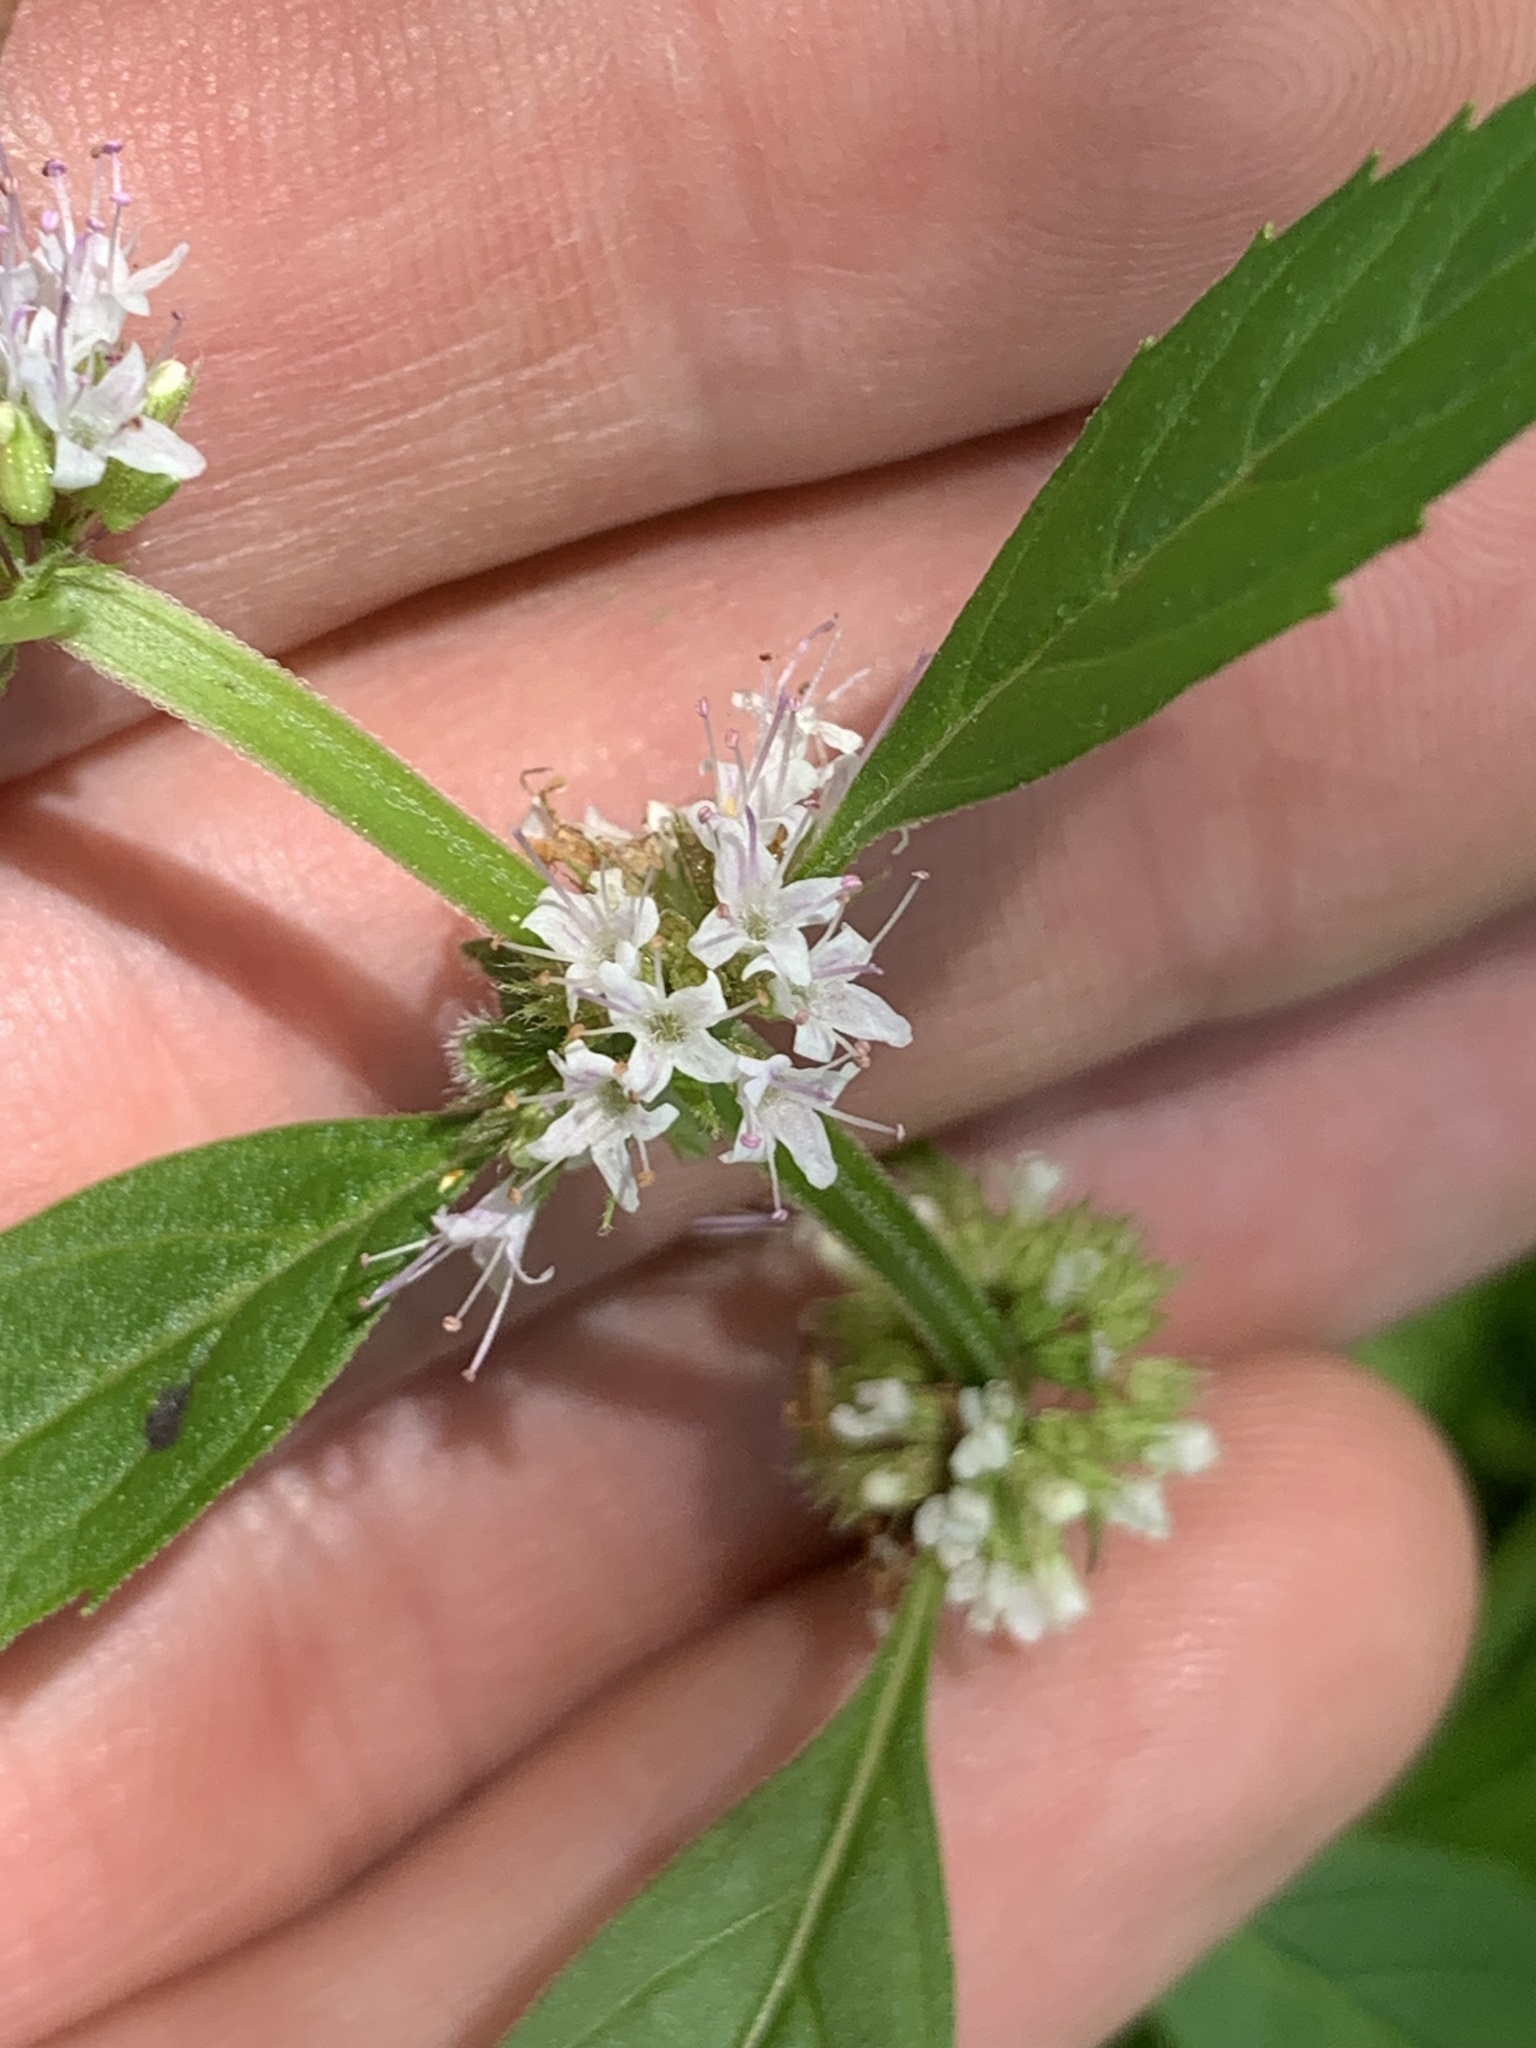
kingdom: Plantae
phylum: Tracheophyta
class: Magnoliopsida
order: Lamiales
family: Lamiaceae
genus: Mentha
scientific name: Mentha canadensis
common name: American corn mint
